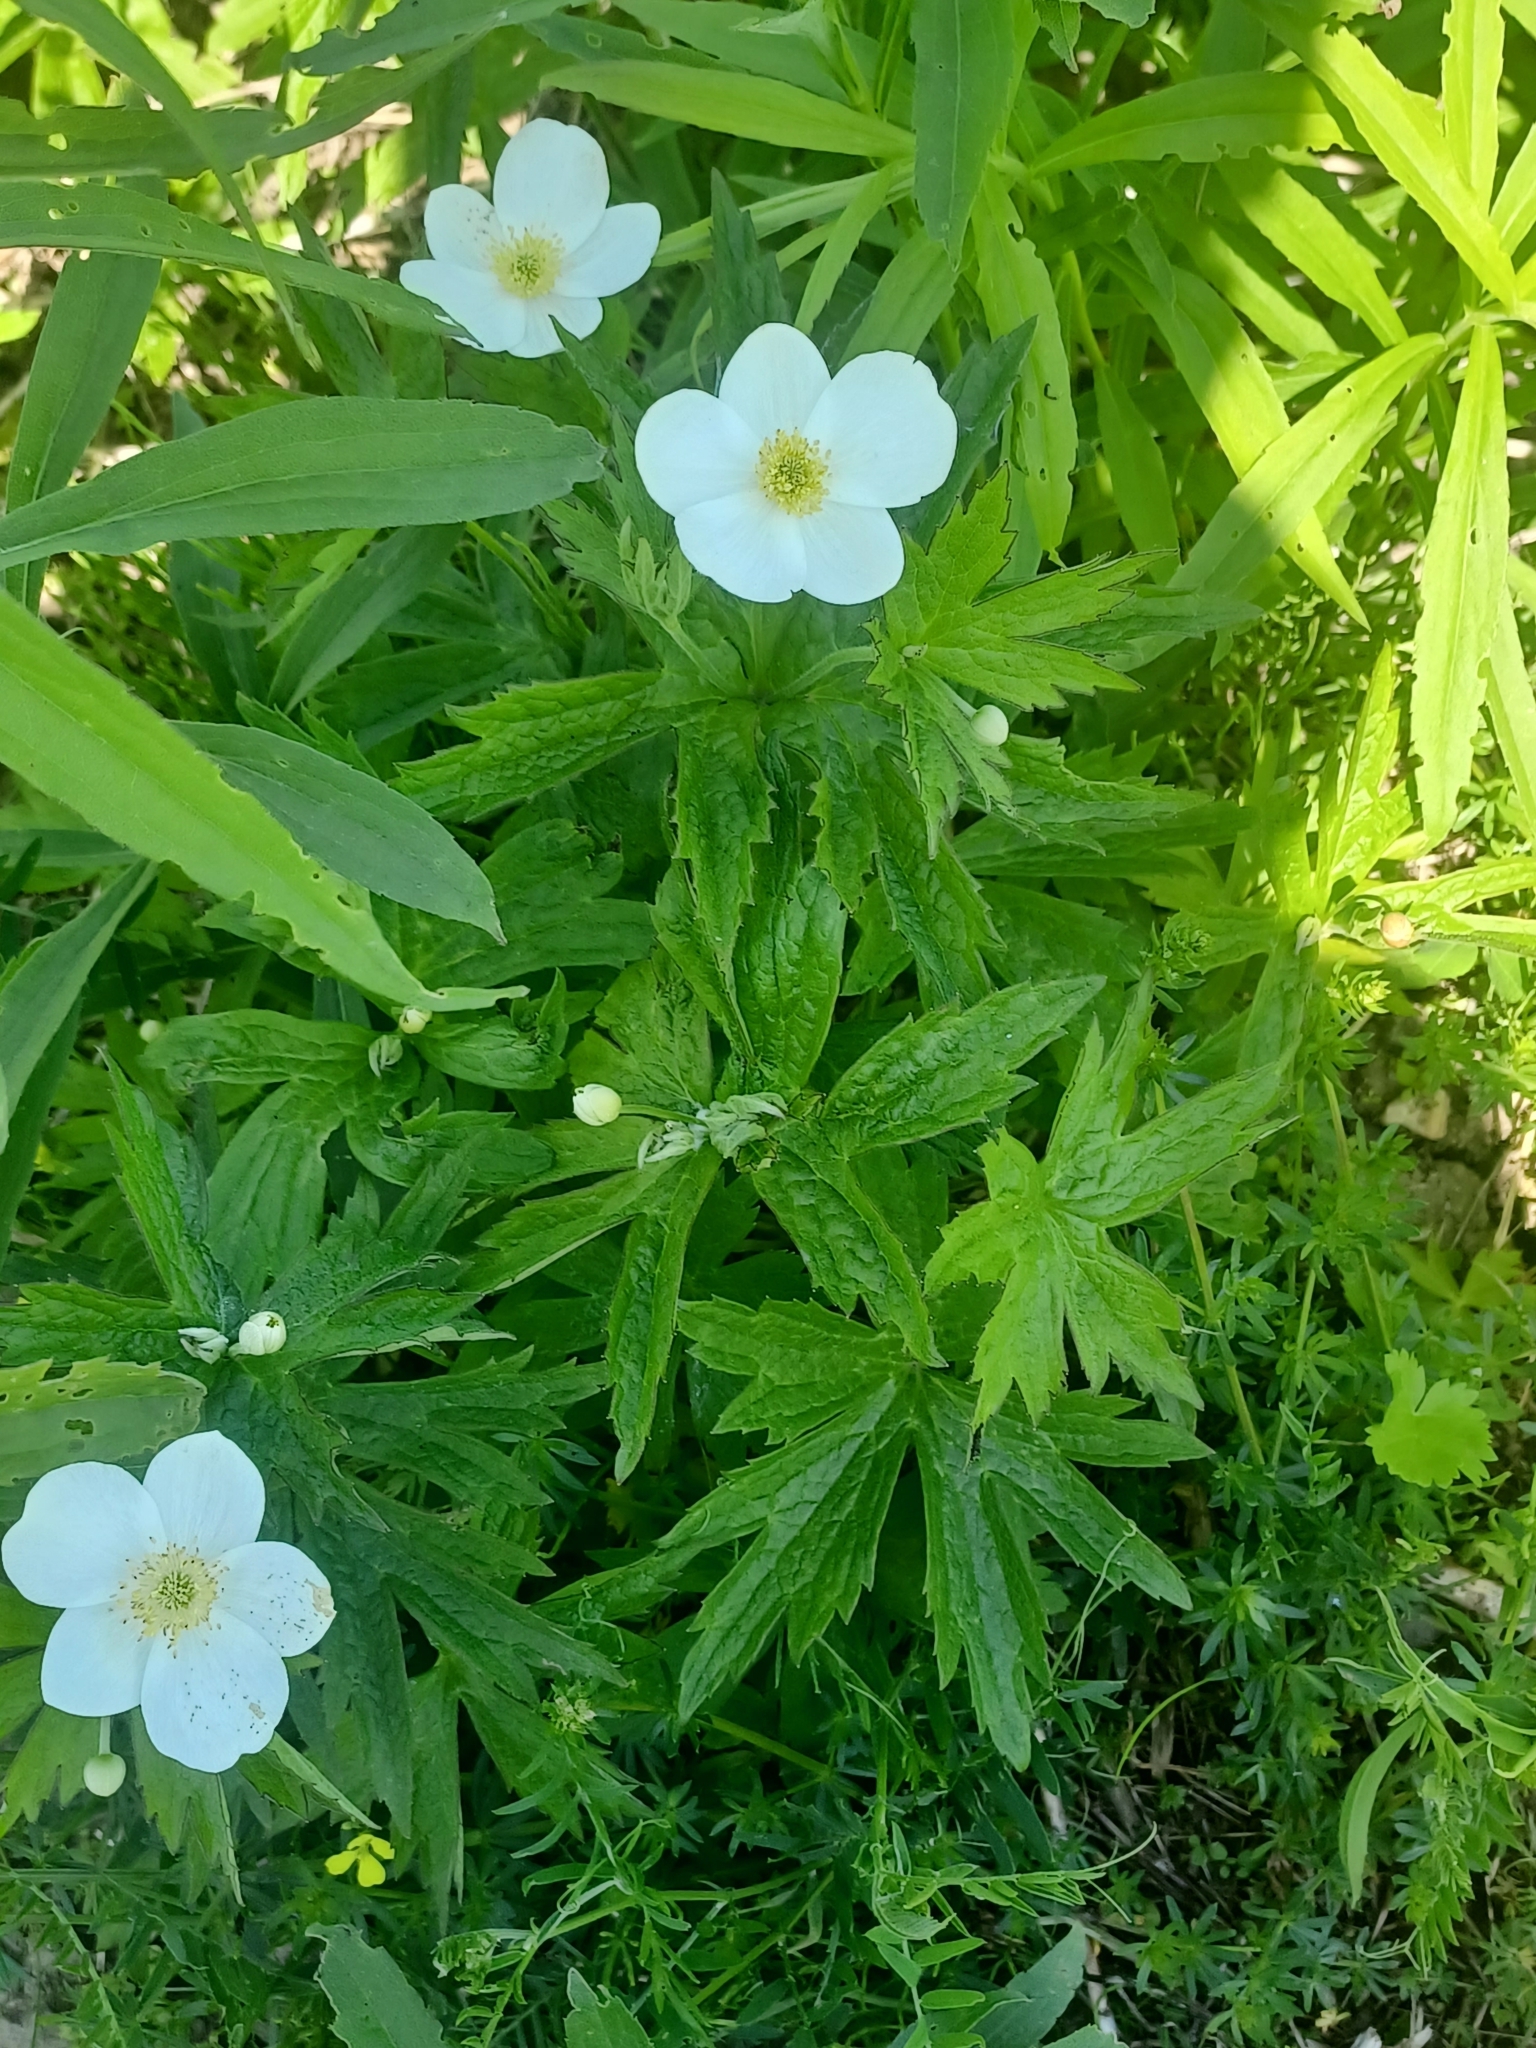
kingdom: Plantae
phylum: Tracheophyta
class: Magnoliopsida
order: Ranunculales
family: Ranunculaceae
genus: Anemonastrum
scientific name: Anemonastrum canadense
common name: Canada anemone
